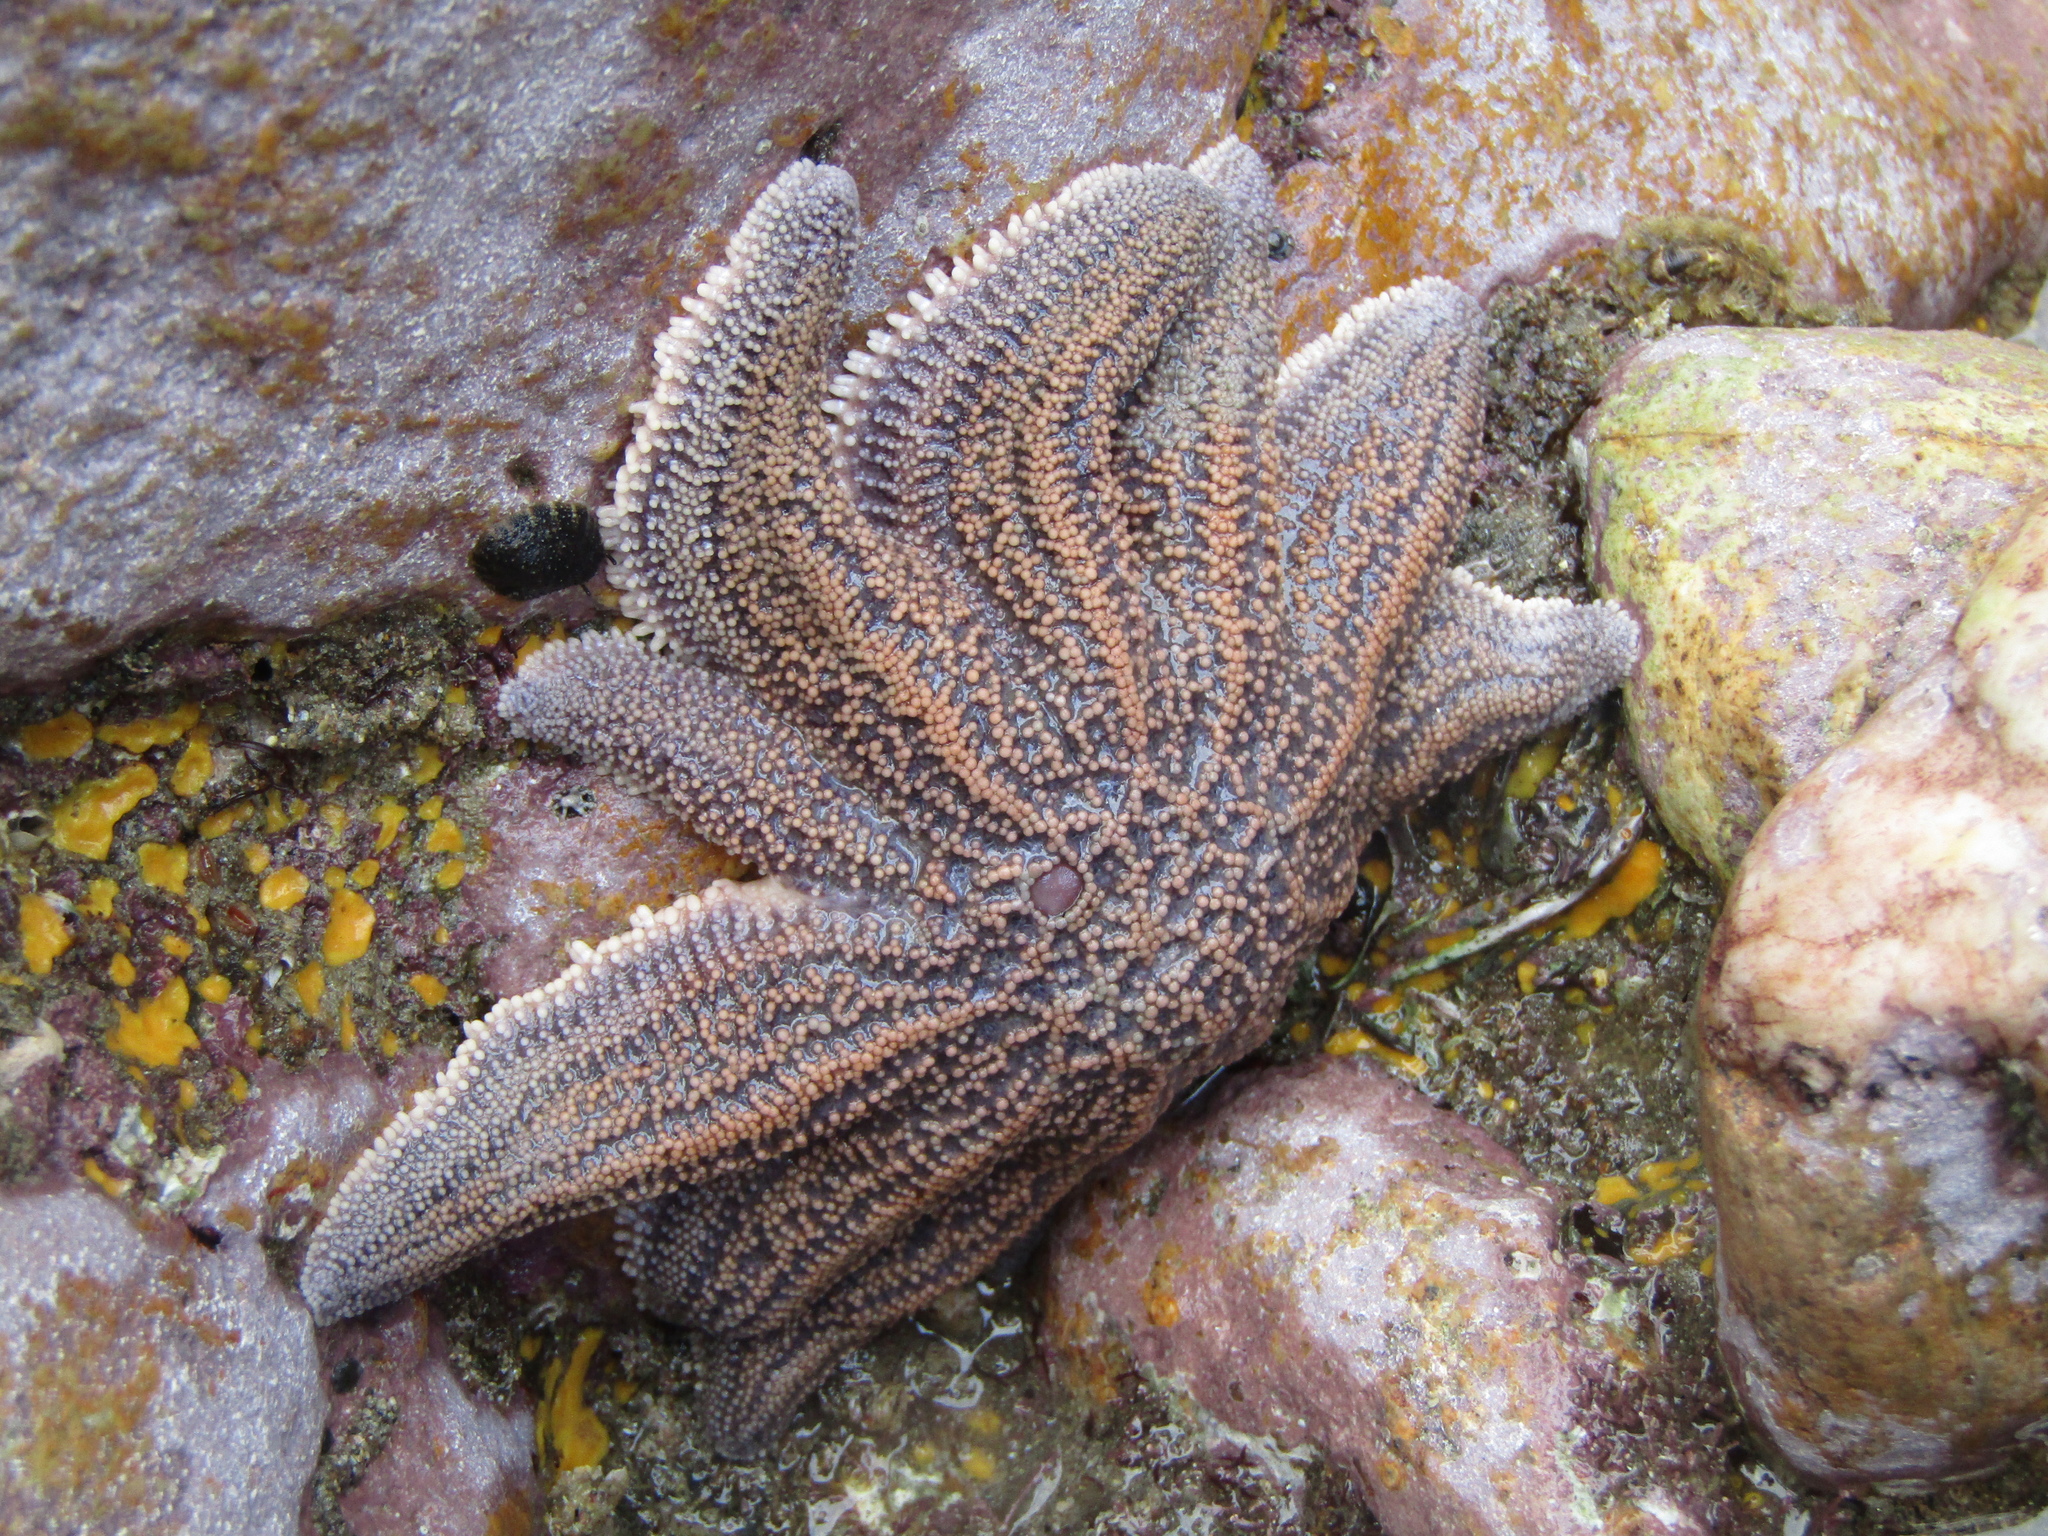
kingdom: Animalia
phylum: Echinodermata
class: Asteroidea
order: Forcipulatida
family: Stichasteridae
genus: Stichaster
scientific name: Stichaster australis
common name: Reef starfish
